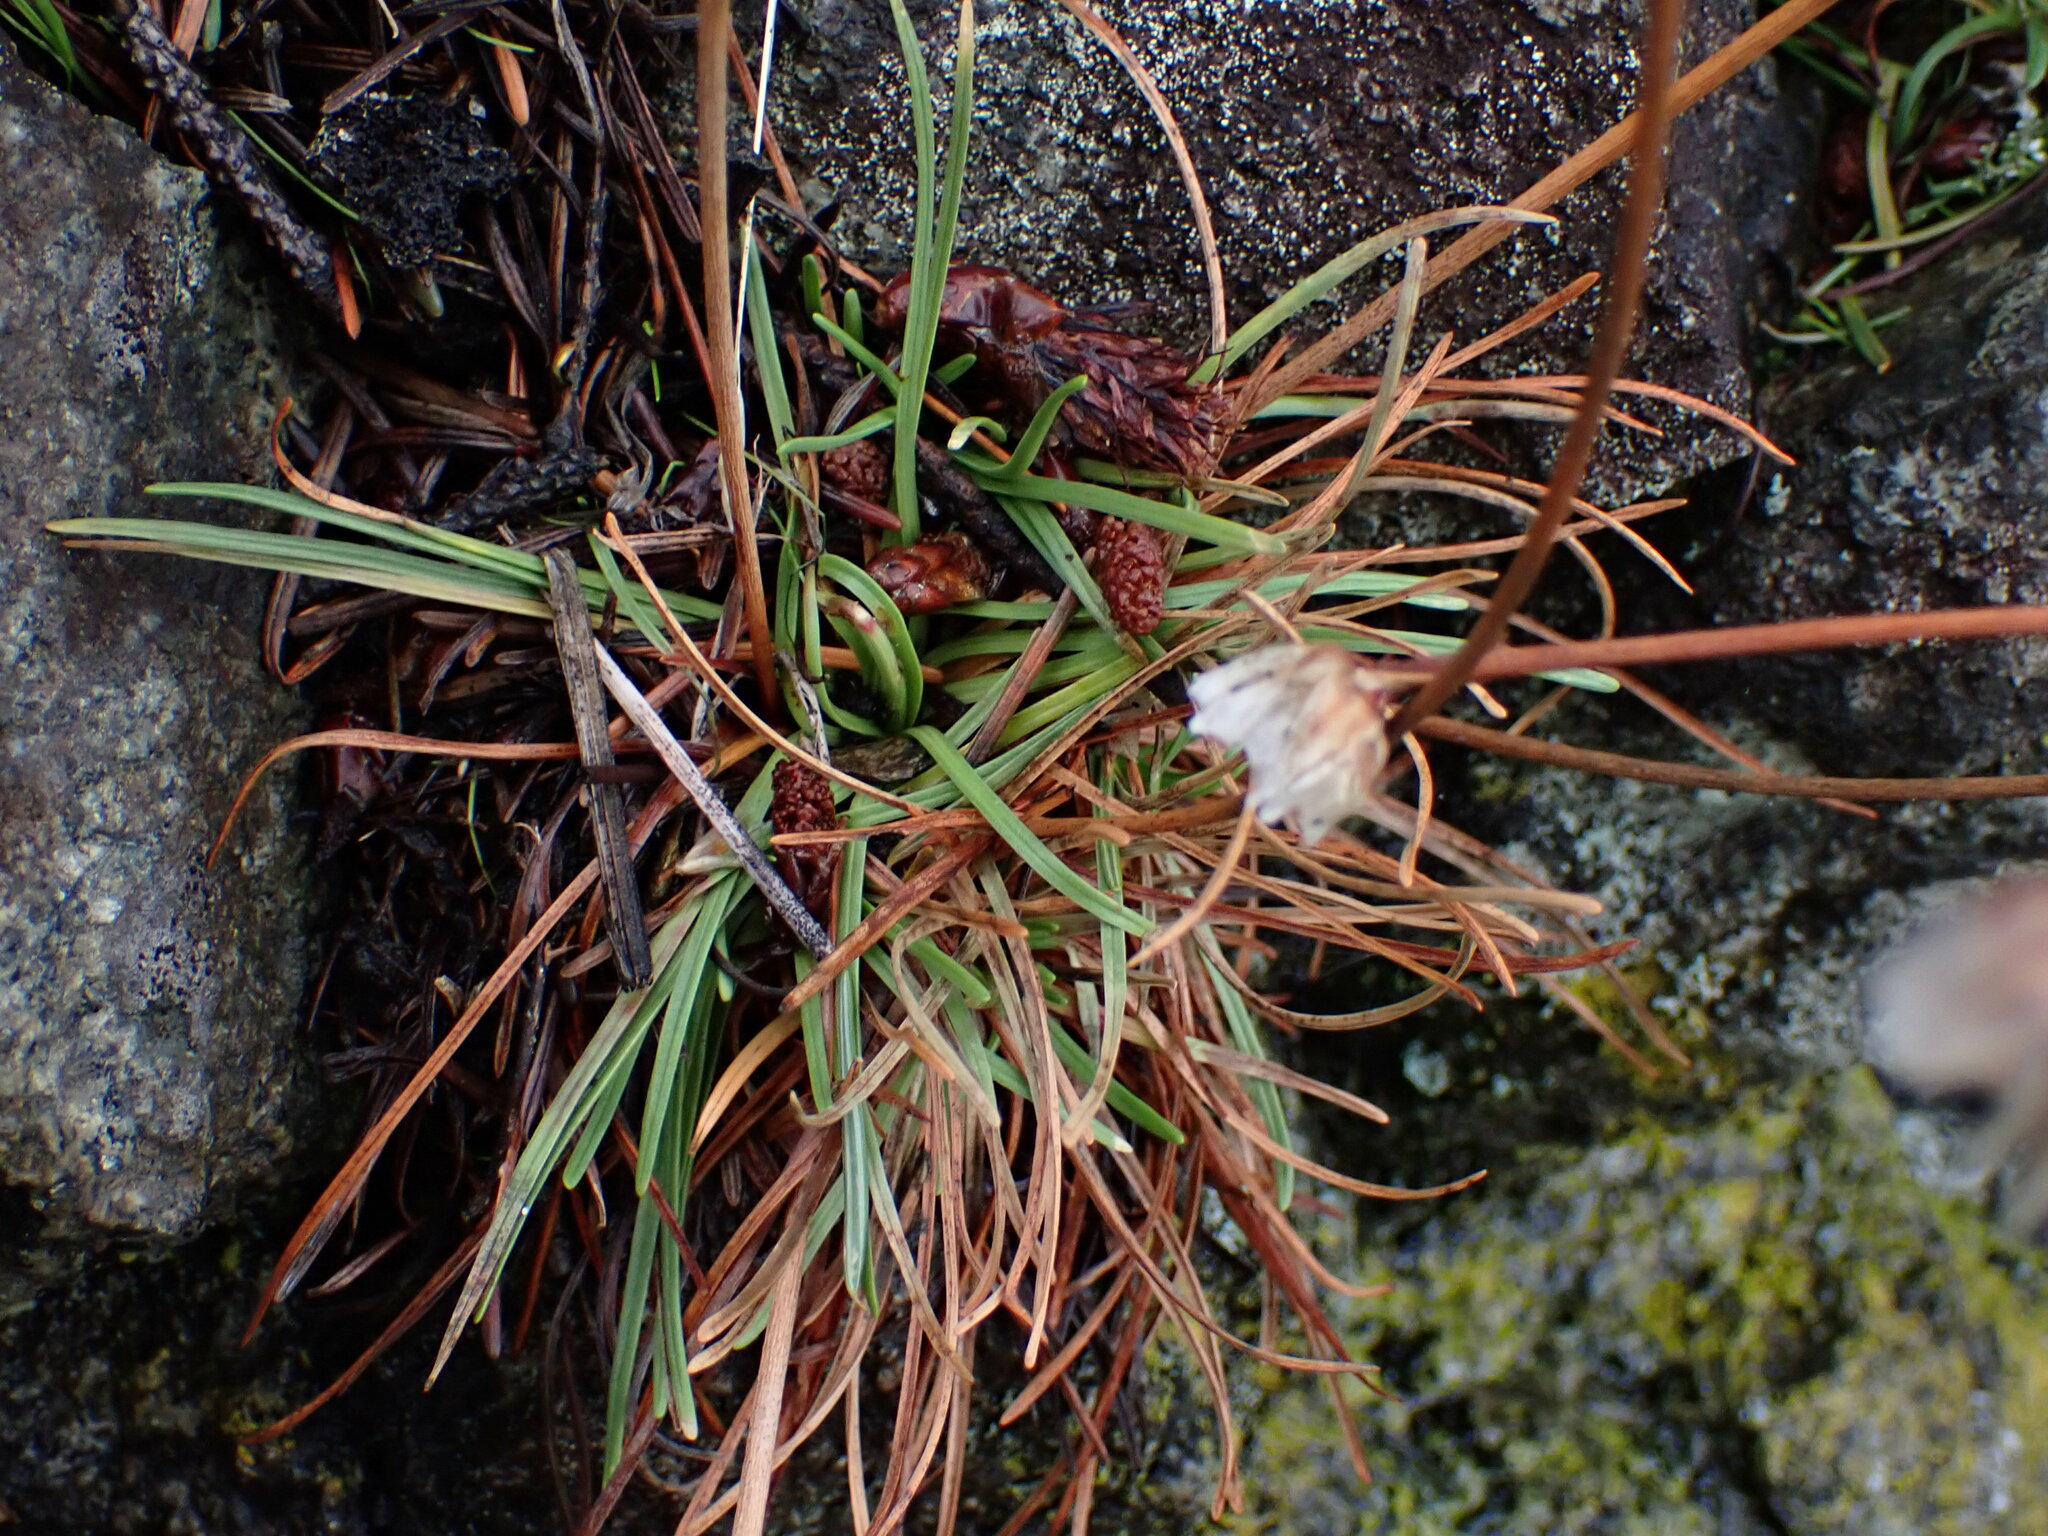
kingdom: Plantae
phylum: Tracheophyta
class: Magnoliopsida
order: Caryophyllales
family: Plumbaginaceae
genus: Armeria
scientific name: Armeria maritima
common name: Thrift
